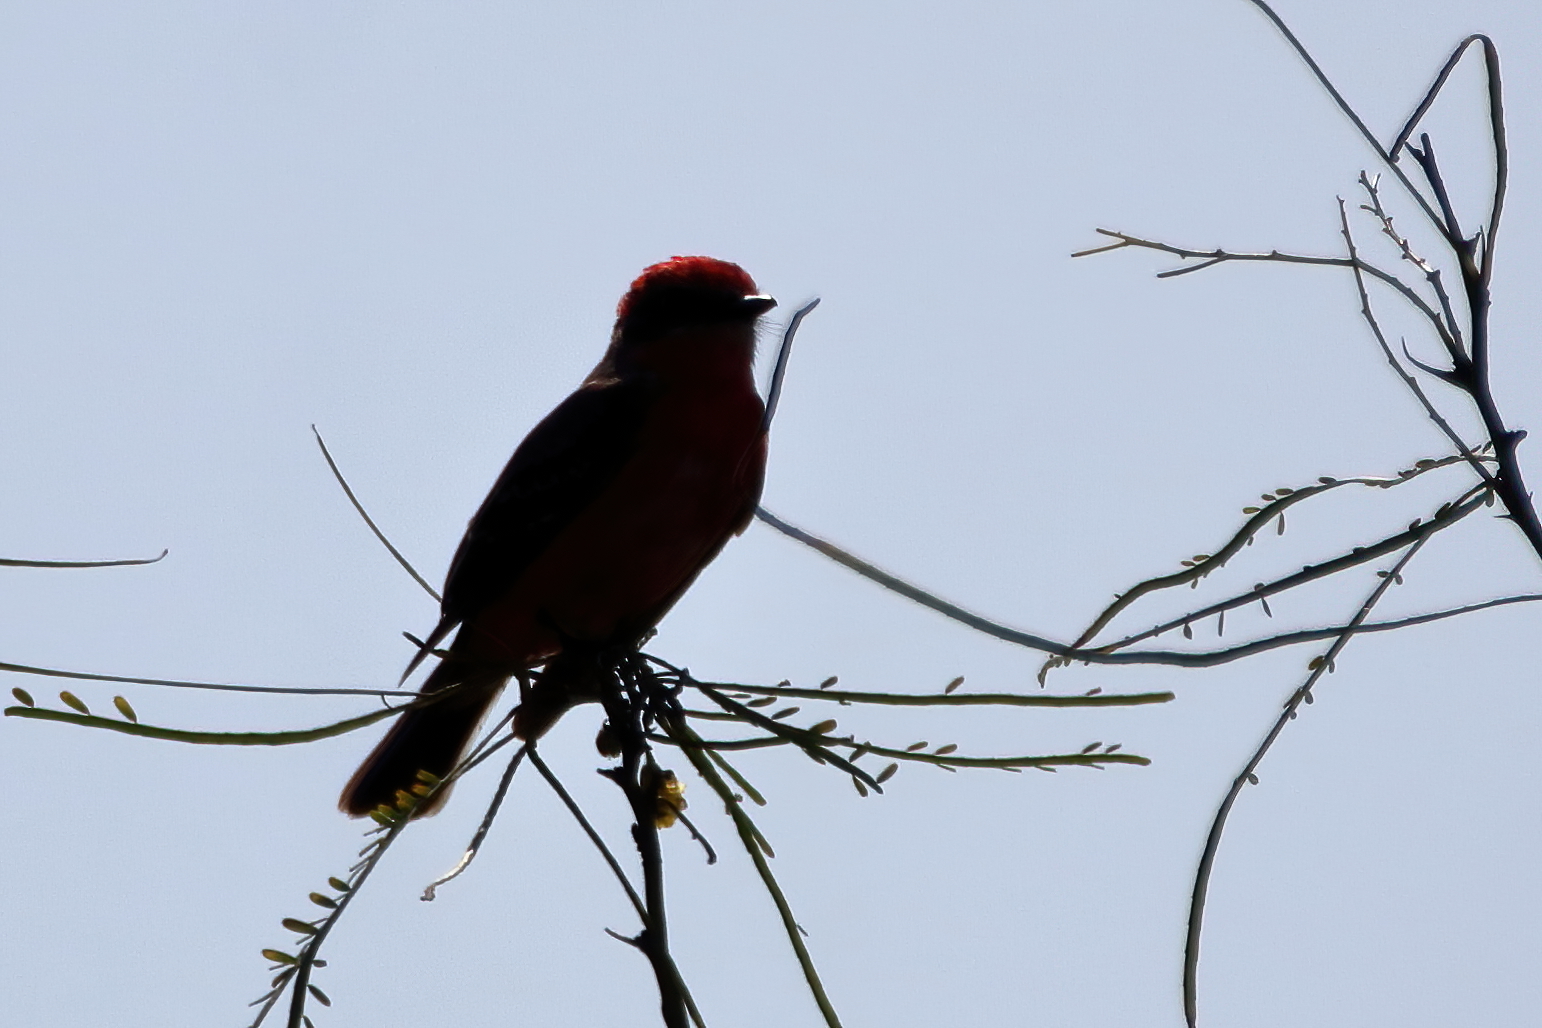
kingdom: Animalia
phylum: Chordata
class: Aves
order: Passeriformes
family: Tyrannidae
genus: Pyrocephalus
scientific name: Pyrocephalus rubinus
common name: Vermilion flycatcher
